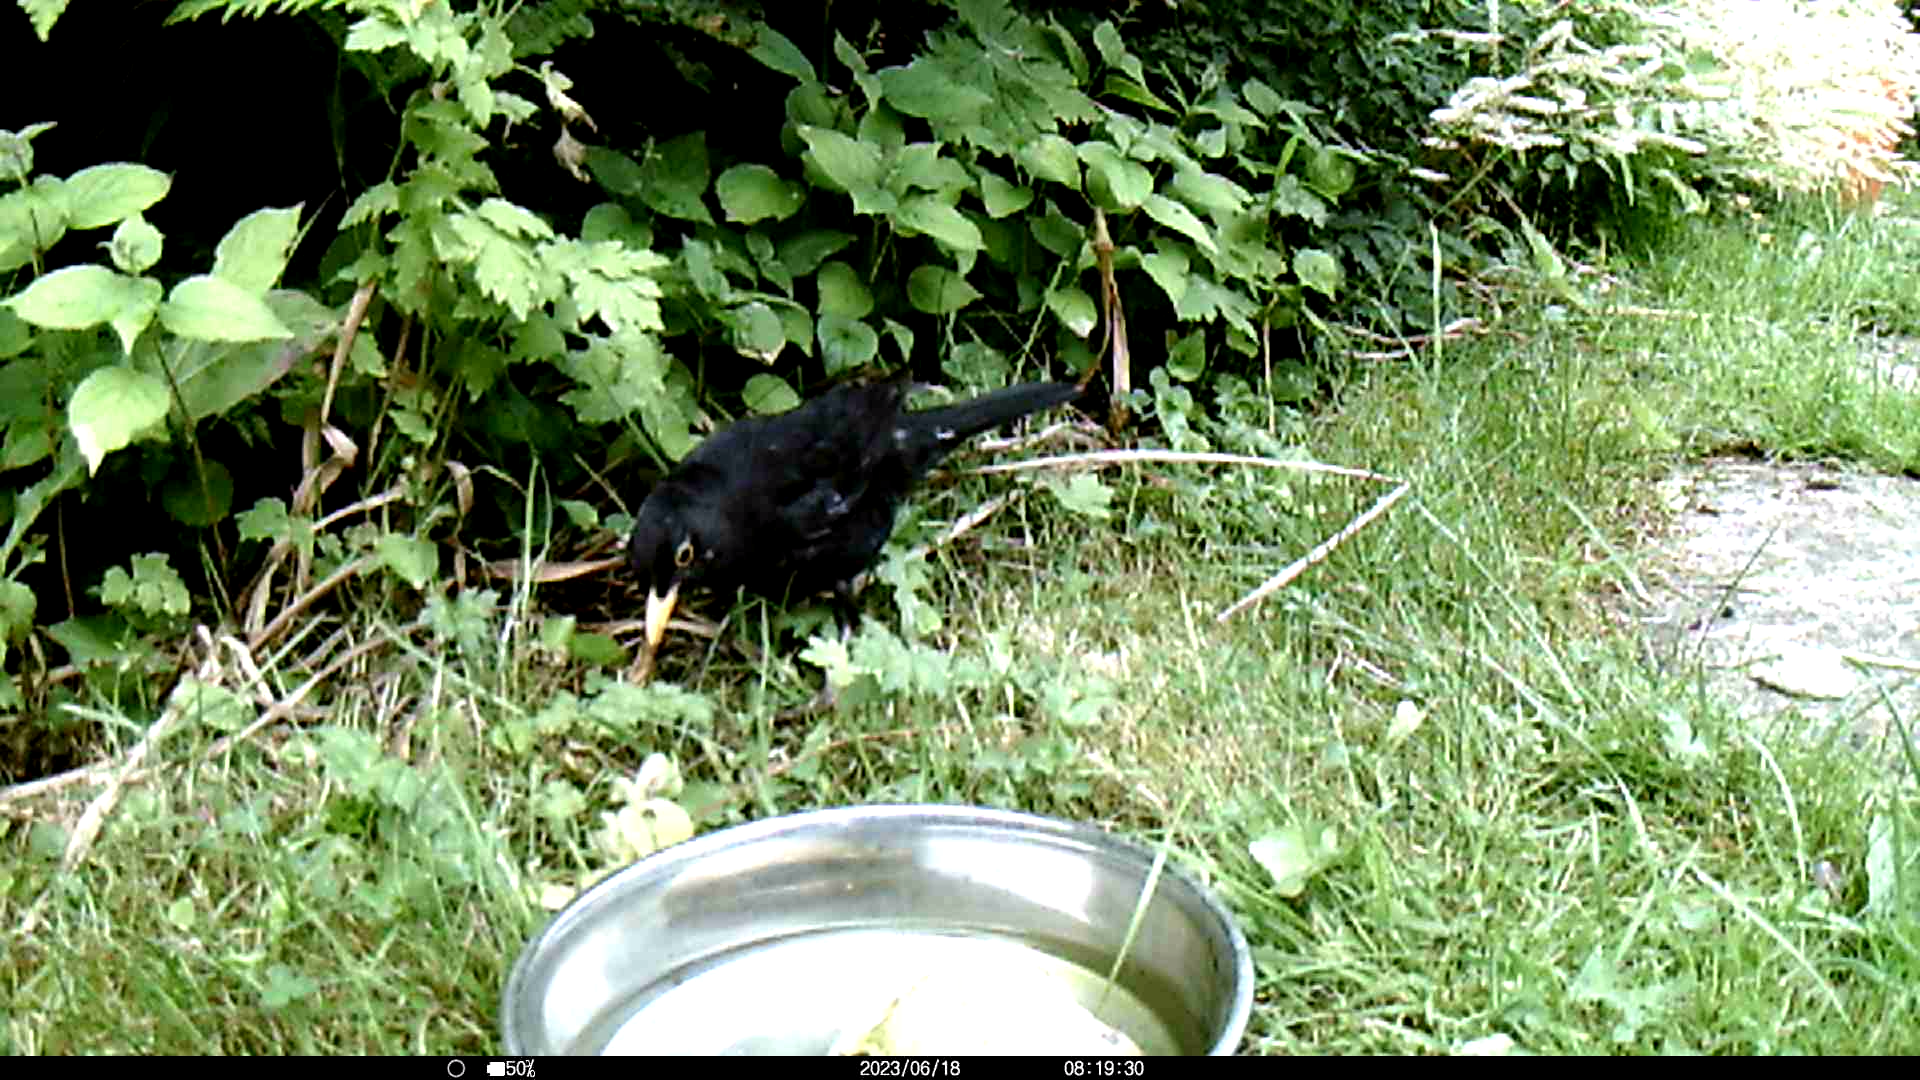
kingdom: Animalia
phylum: Chordata
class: Aves
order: Passeriformes
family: Turdidae
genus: Turdus
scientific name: Turdus merula
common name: Common blackbird
